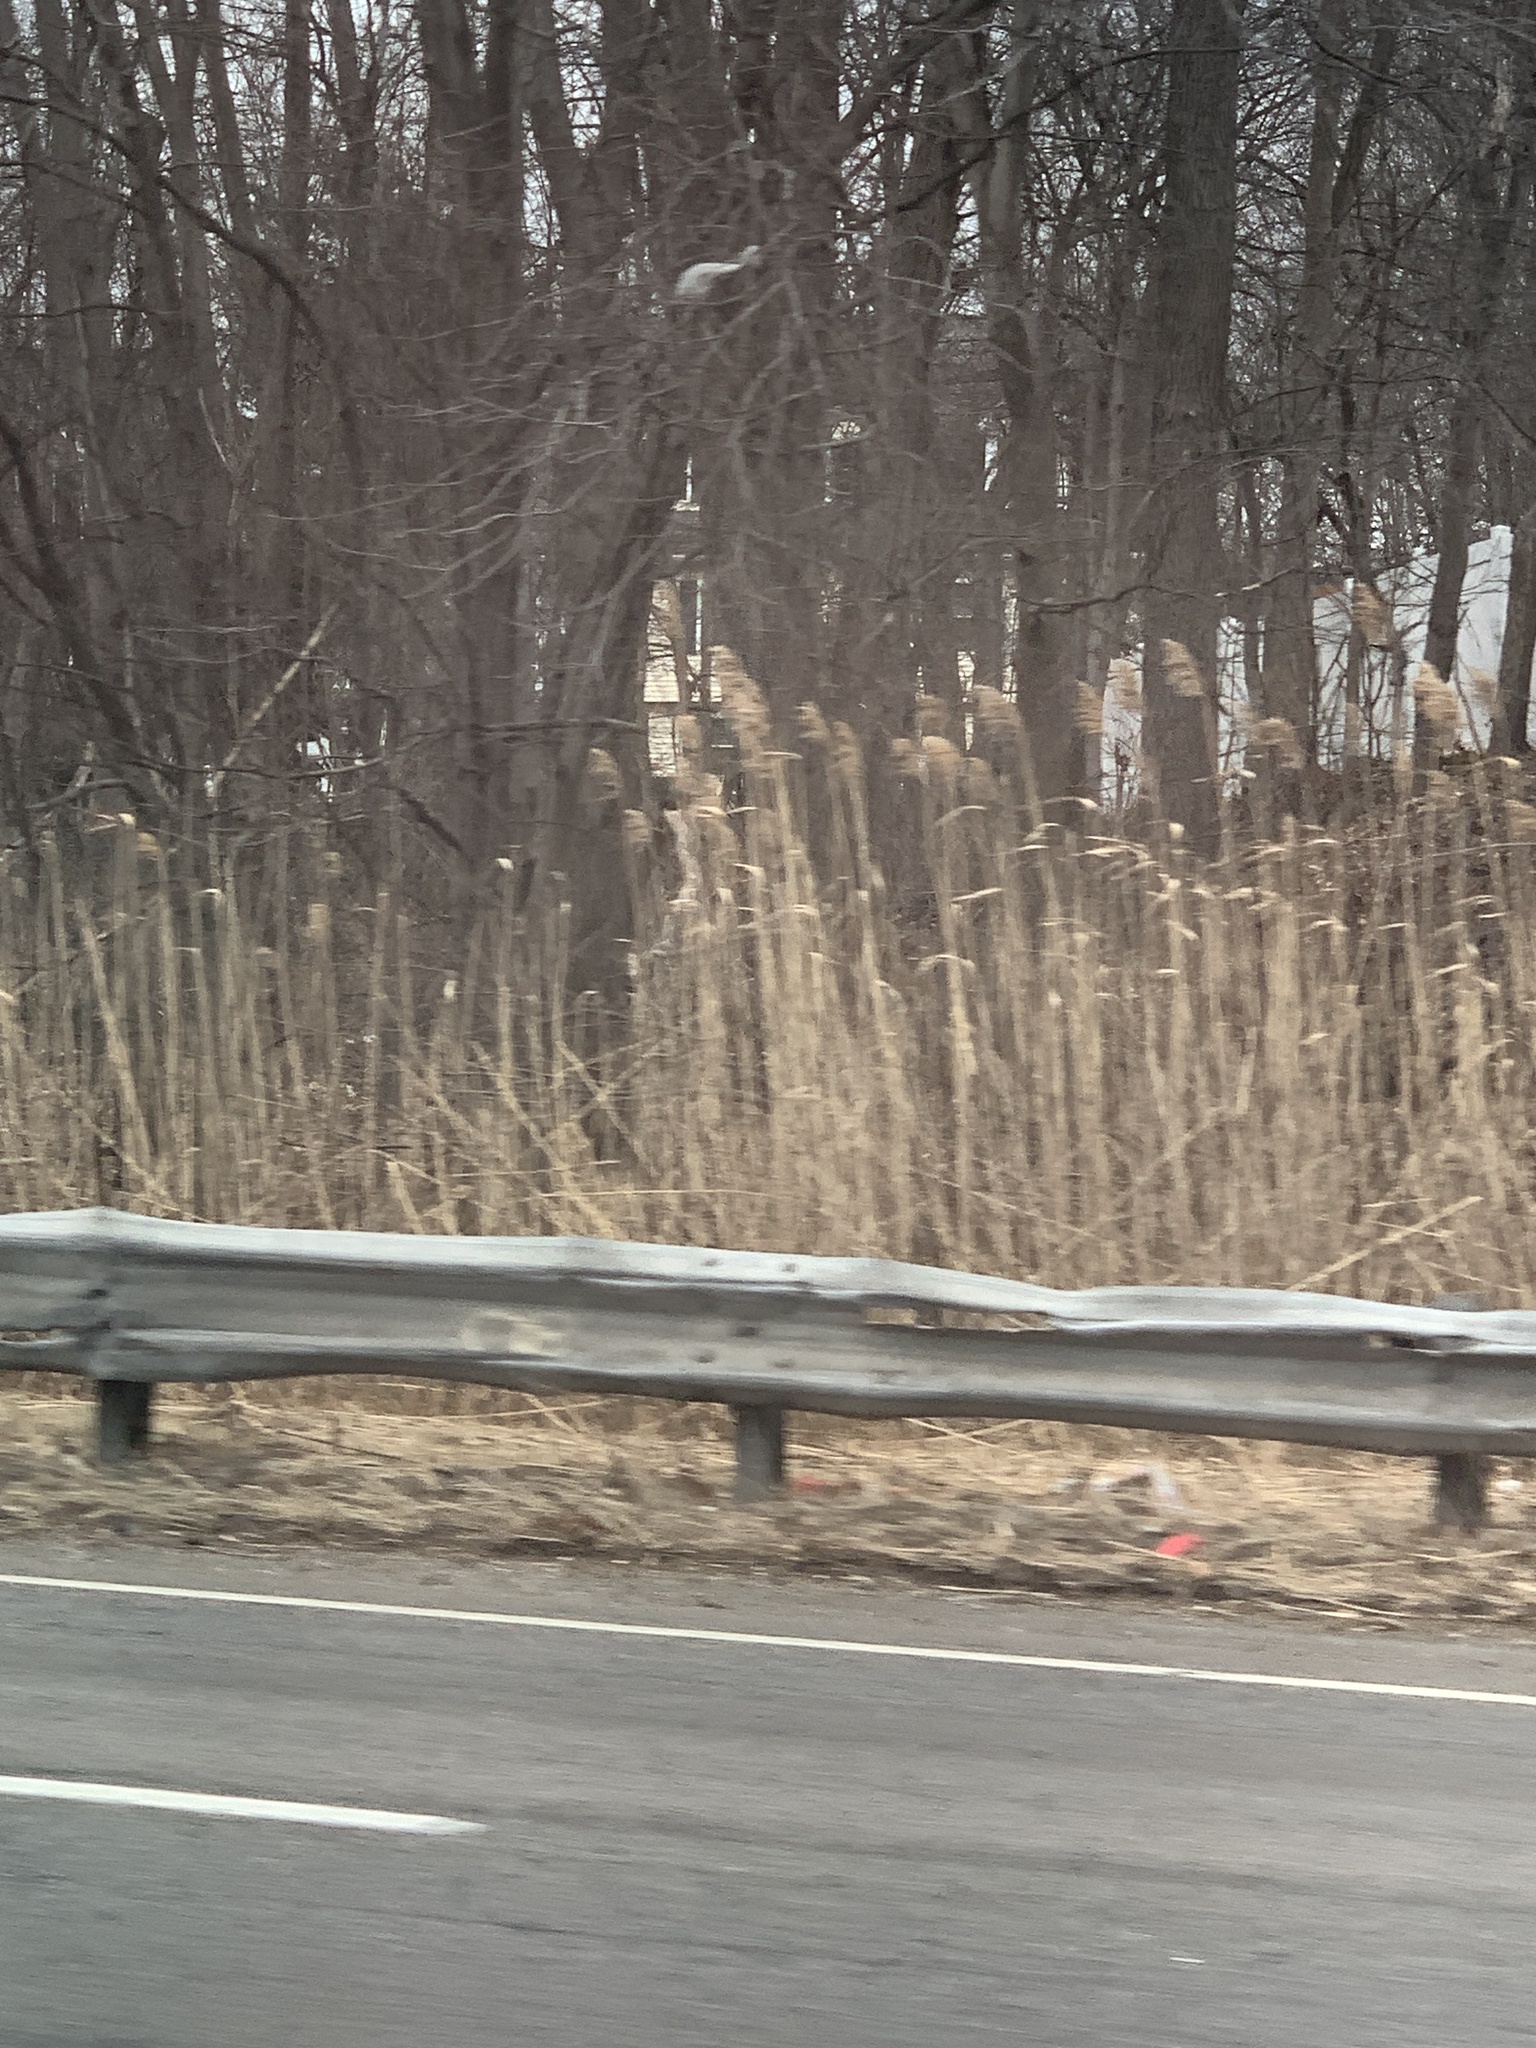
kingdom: Plantae
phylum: Tracheophyta
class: Liliopsida
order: Poales
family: Poaceae
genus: Phragmites
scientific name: Phragmites australis
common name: Common reed
